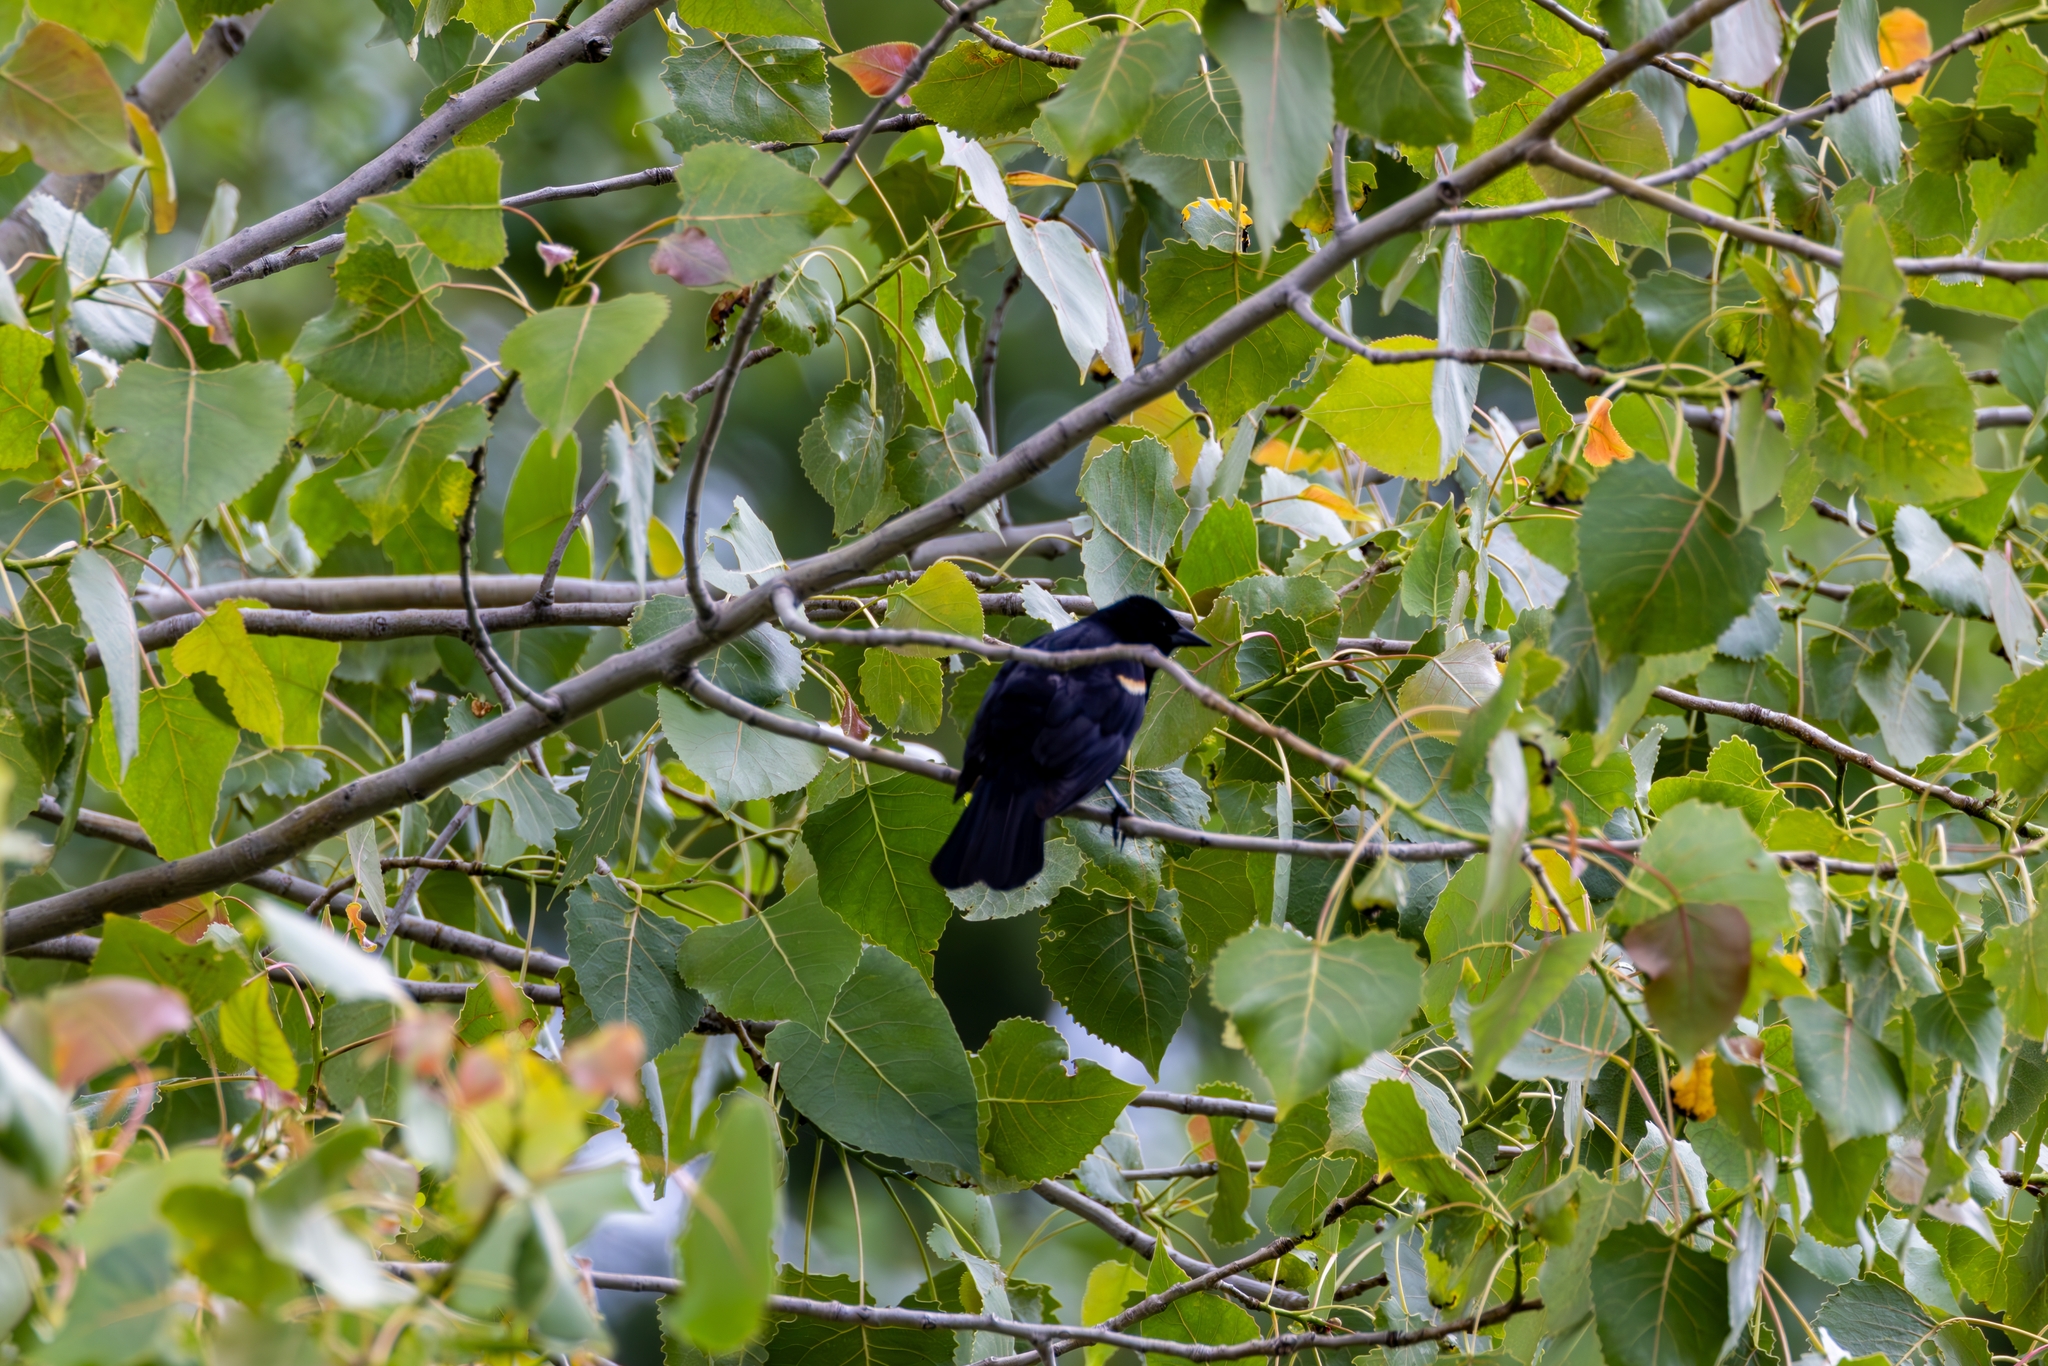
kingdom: Animalia
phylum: Chordata
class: Aves
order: Passeriformes
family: Icteridae
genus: Agelaius
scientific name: Agelaius phoeniceus
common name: Red-winged blackbird
